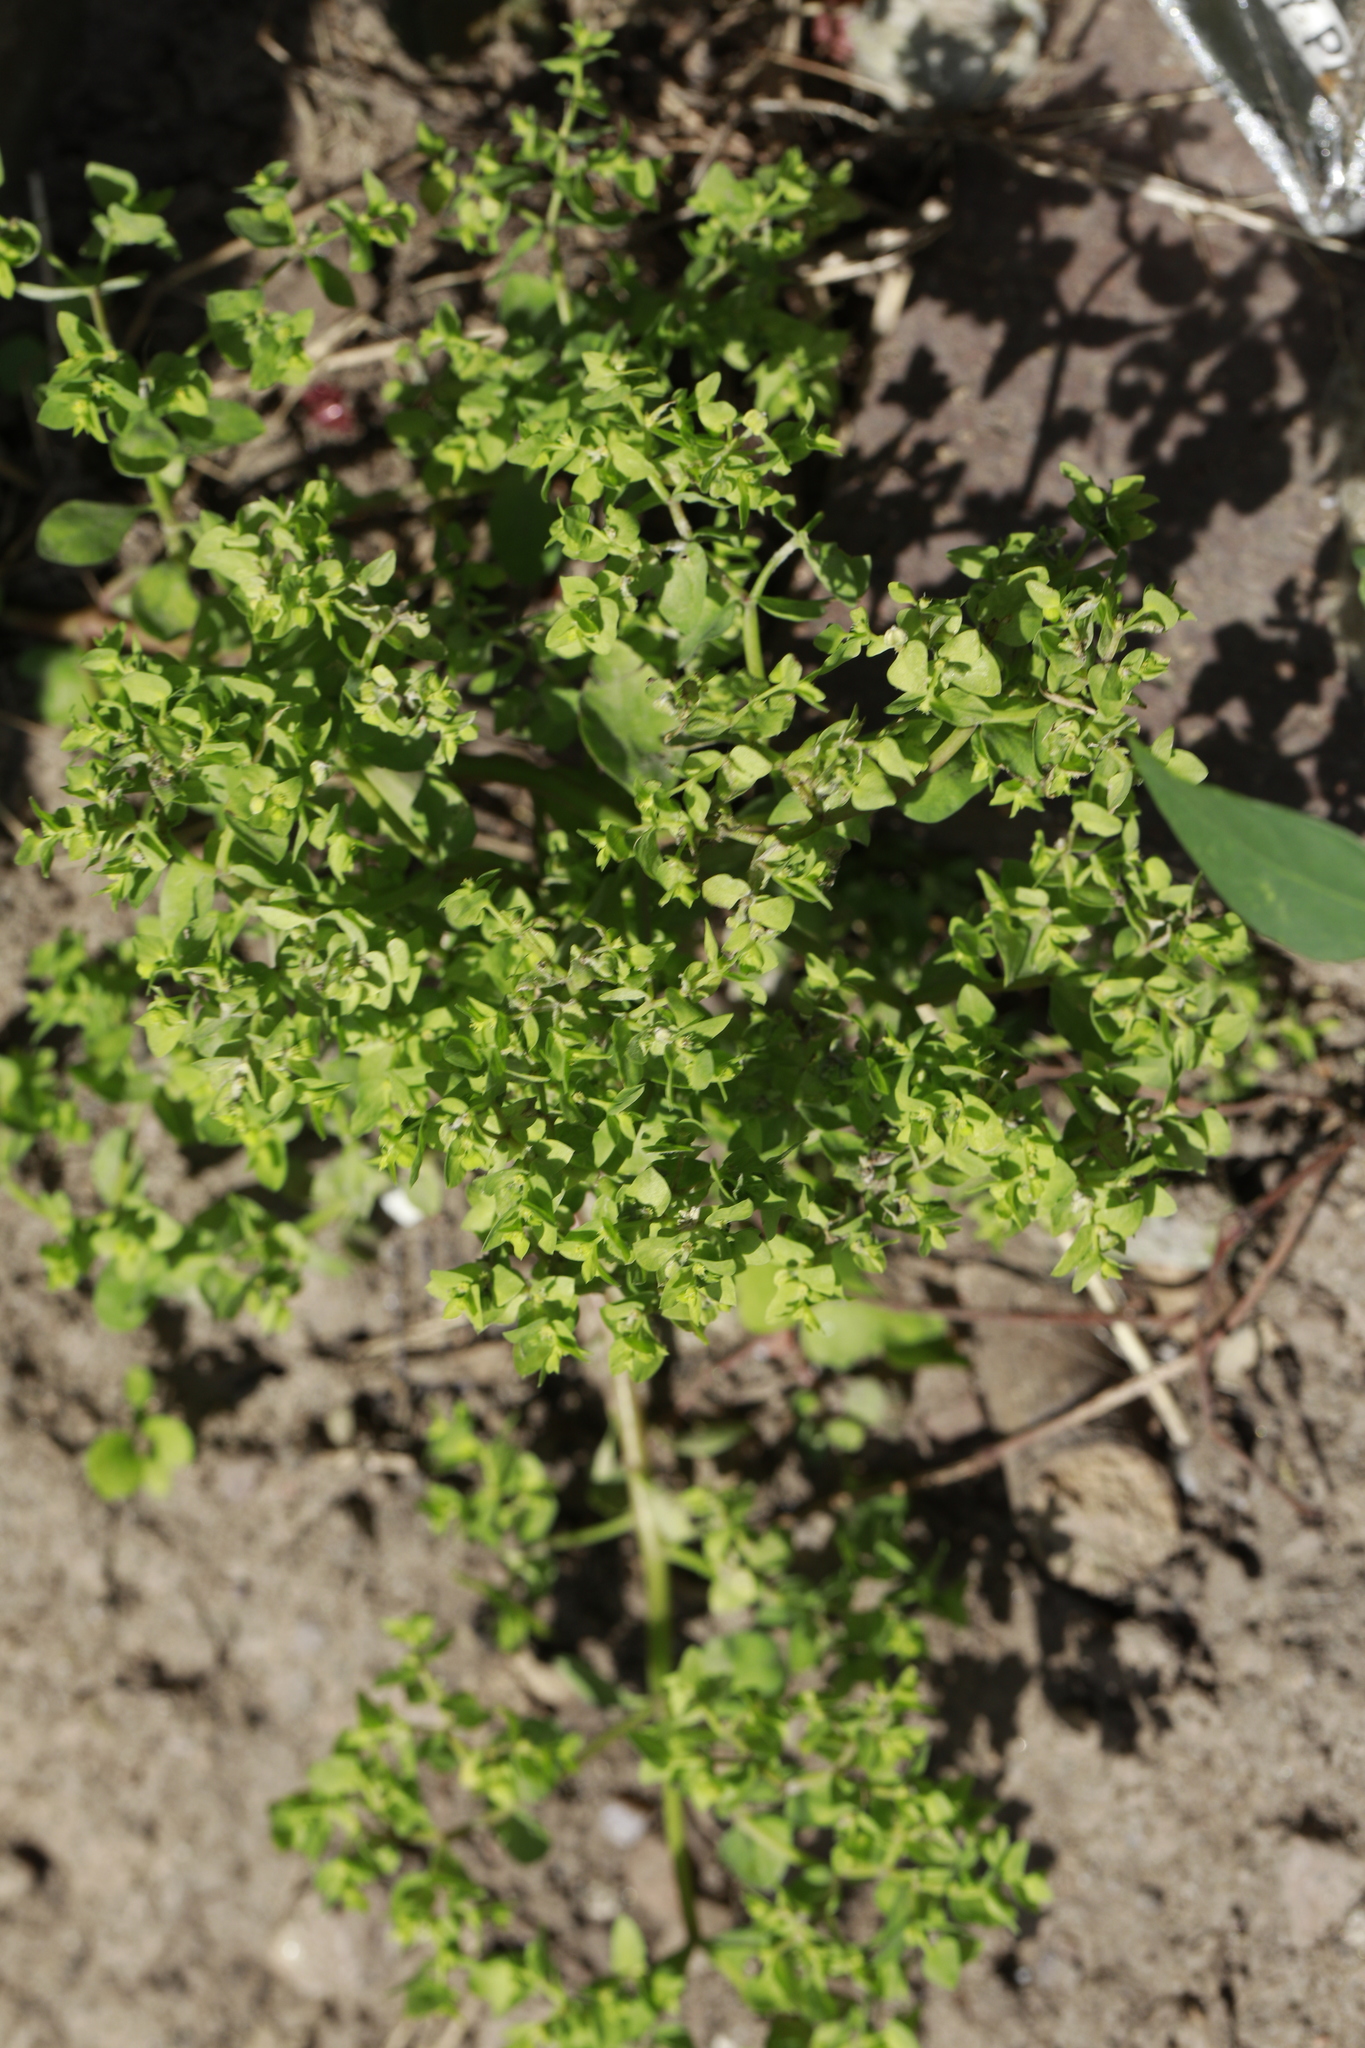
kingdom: Plantae
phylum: Tracheophyta
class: Magnoliopsida
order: Malpighiales
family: Euphorbiaceae
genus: Euphorbia
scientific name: Euphorbia peplus
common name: Petty spurge
